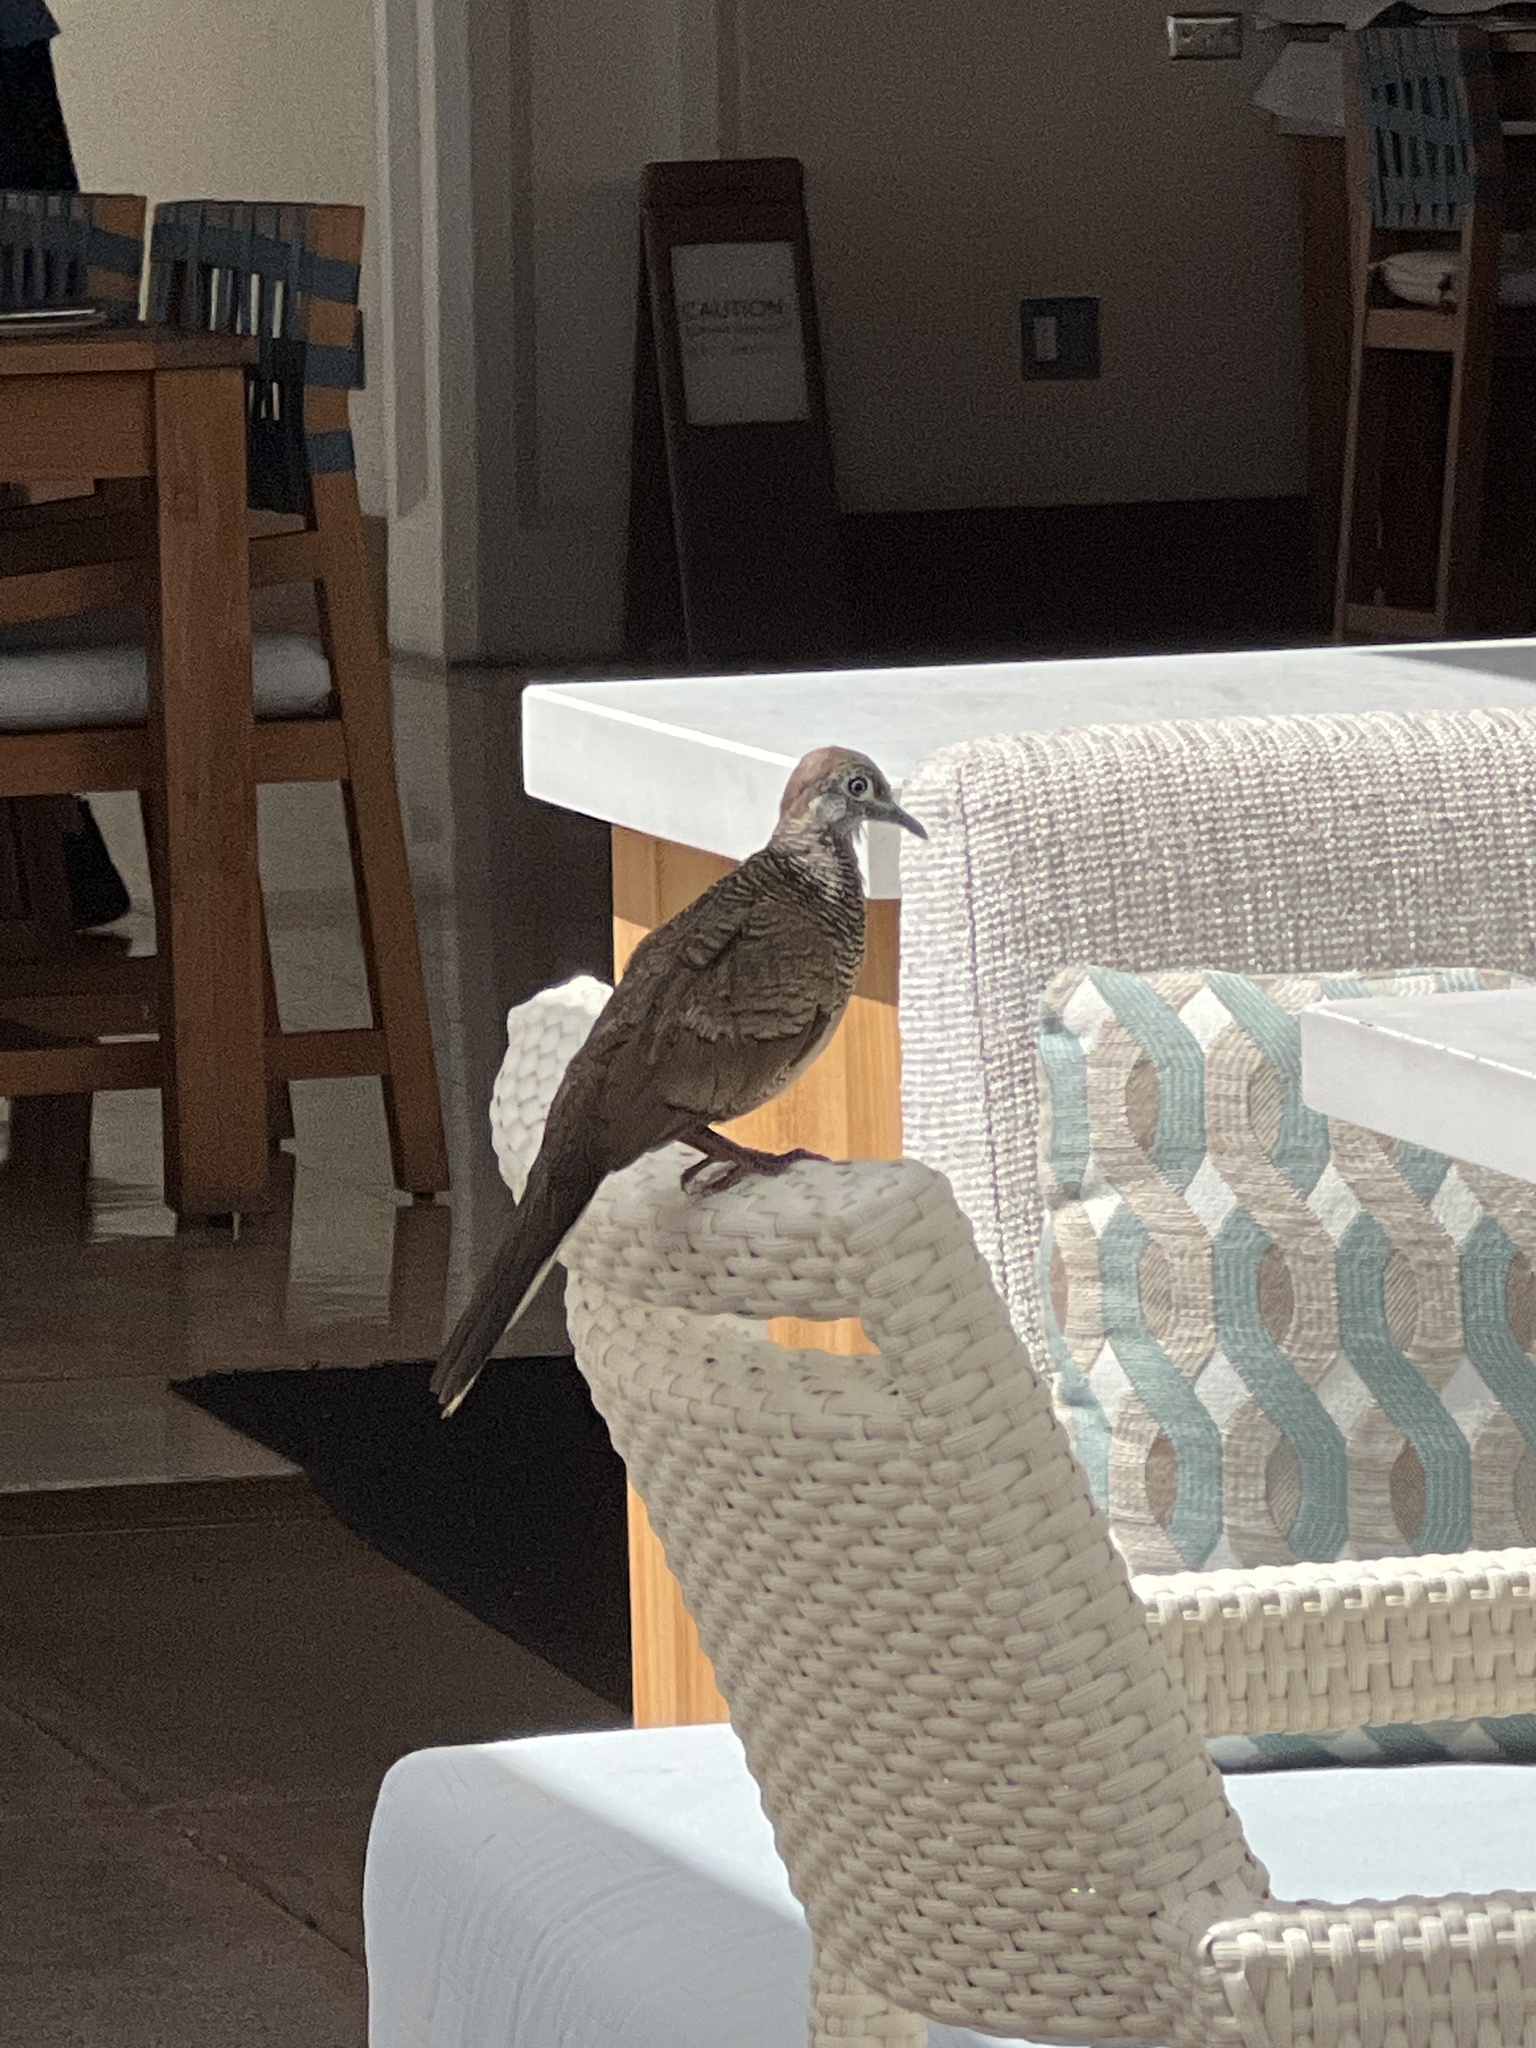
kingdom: Animalia
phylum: Chordata
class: Aves
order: Columbiformes
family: Columbidae
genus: Geopelia
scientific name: Geopelia striata
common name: Zebra dove
